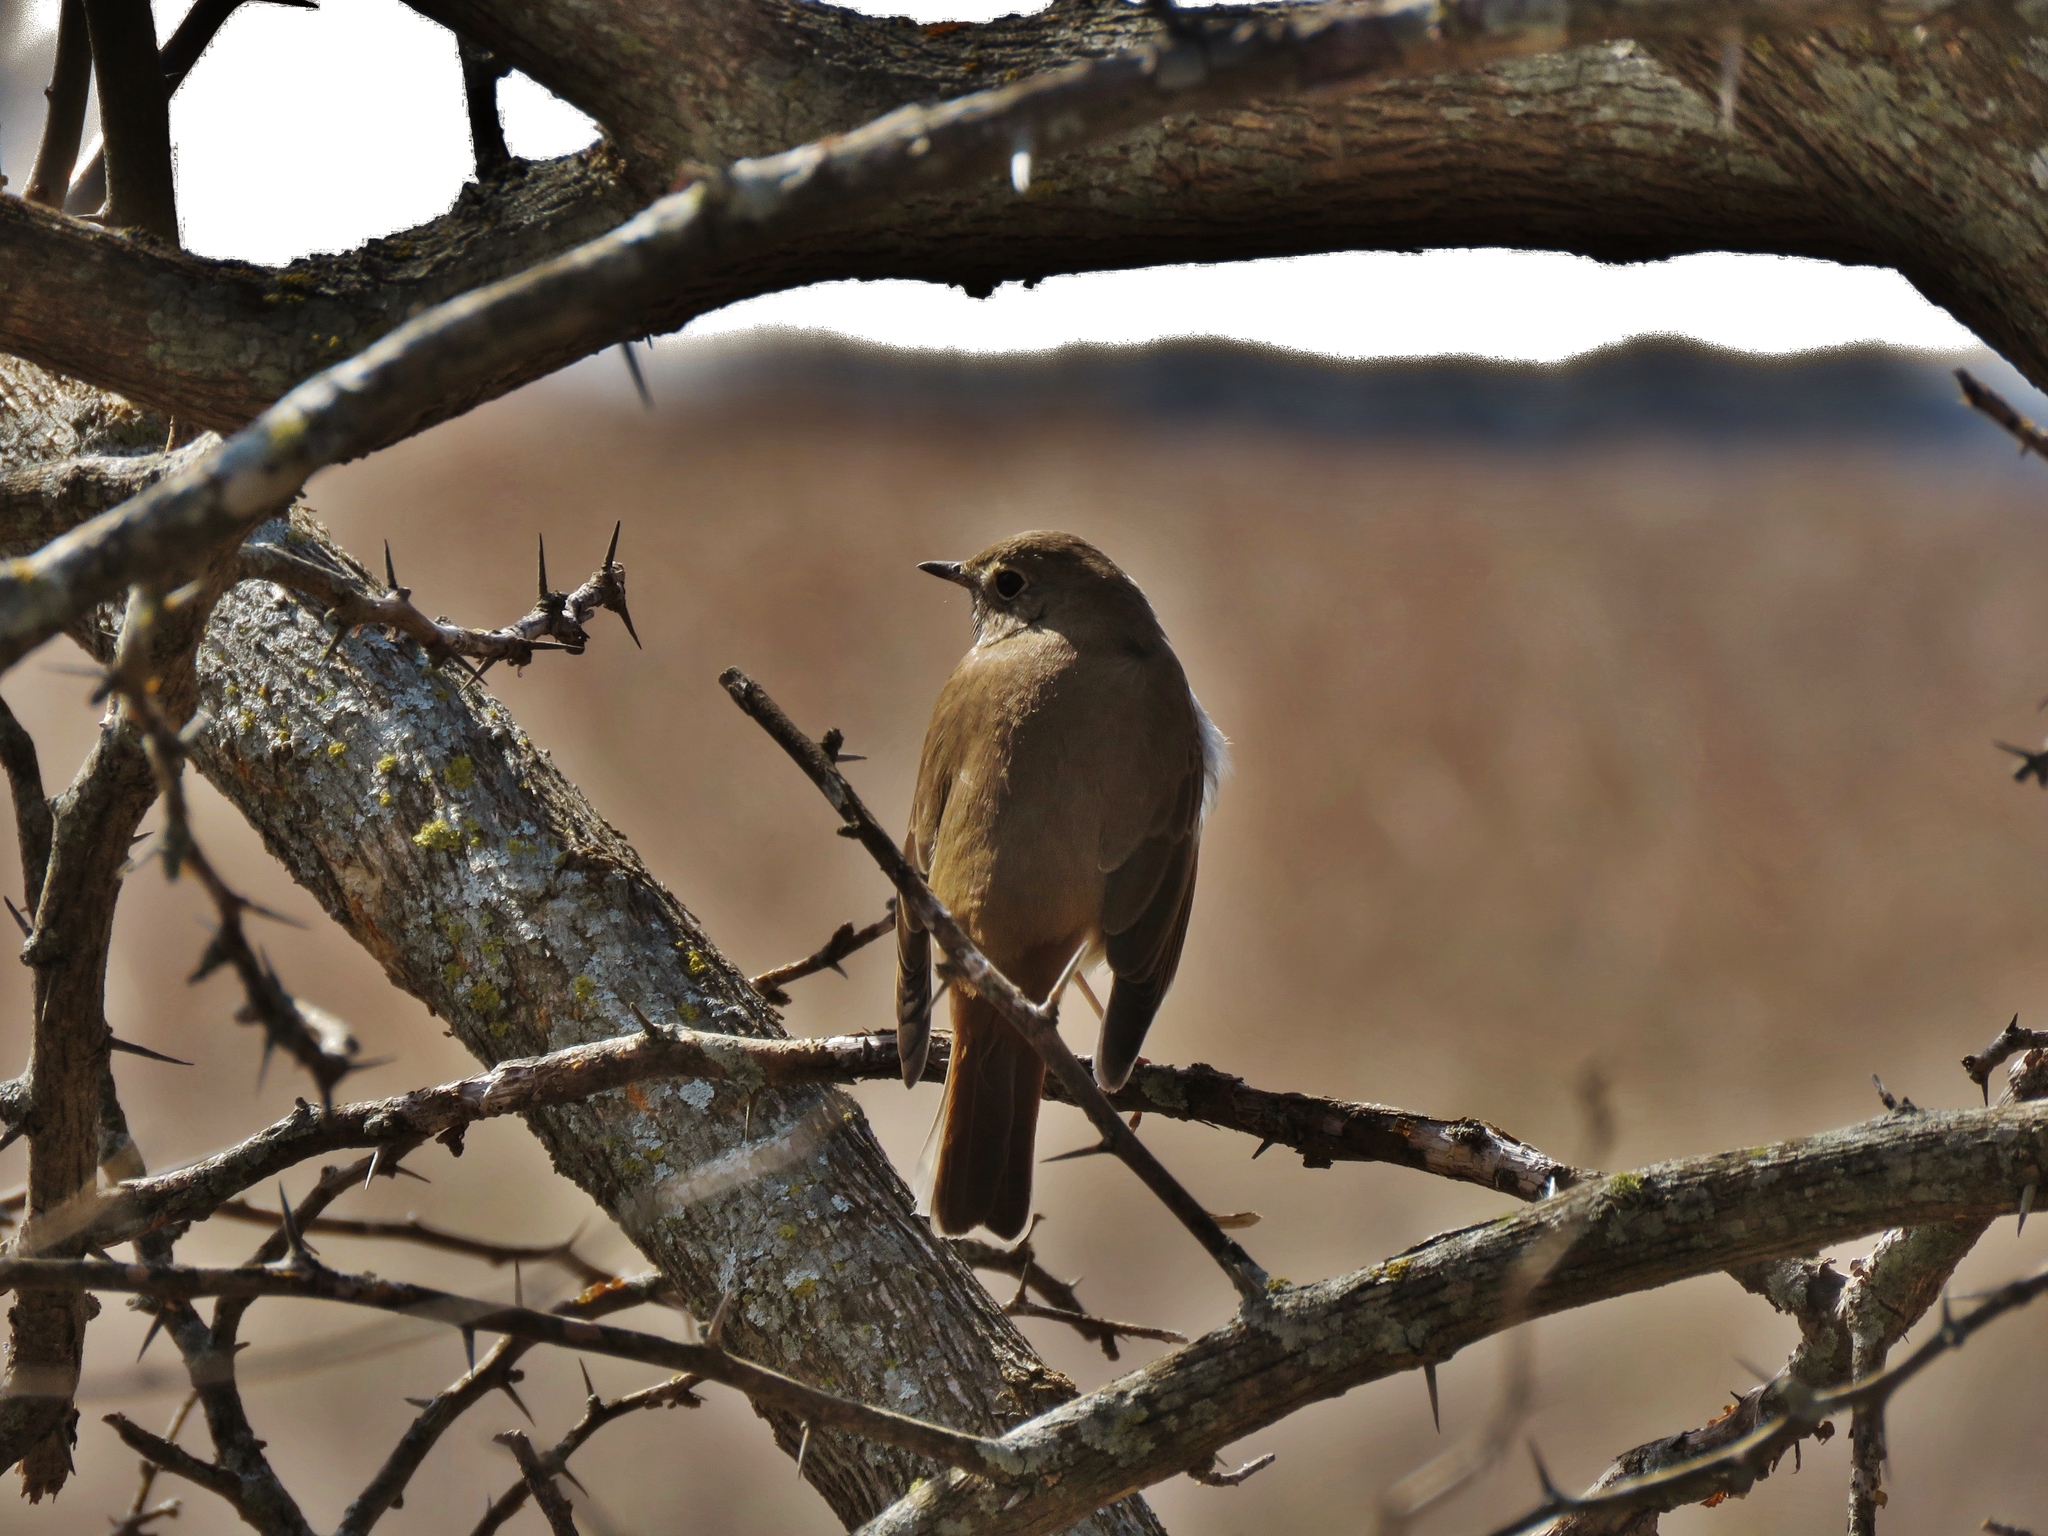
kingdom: Animalia
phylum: Chordata
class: Aves
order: Passeriformes
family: Turdidae
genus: Catharus
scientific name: Catharus guttatus
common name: Hermit thrush
